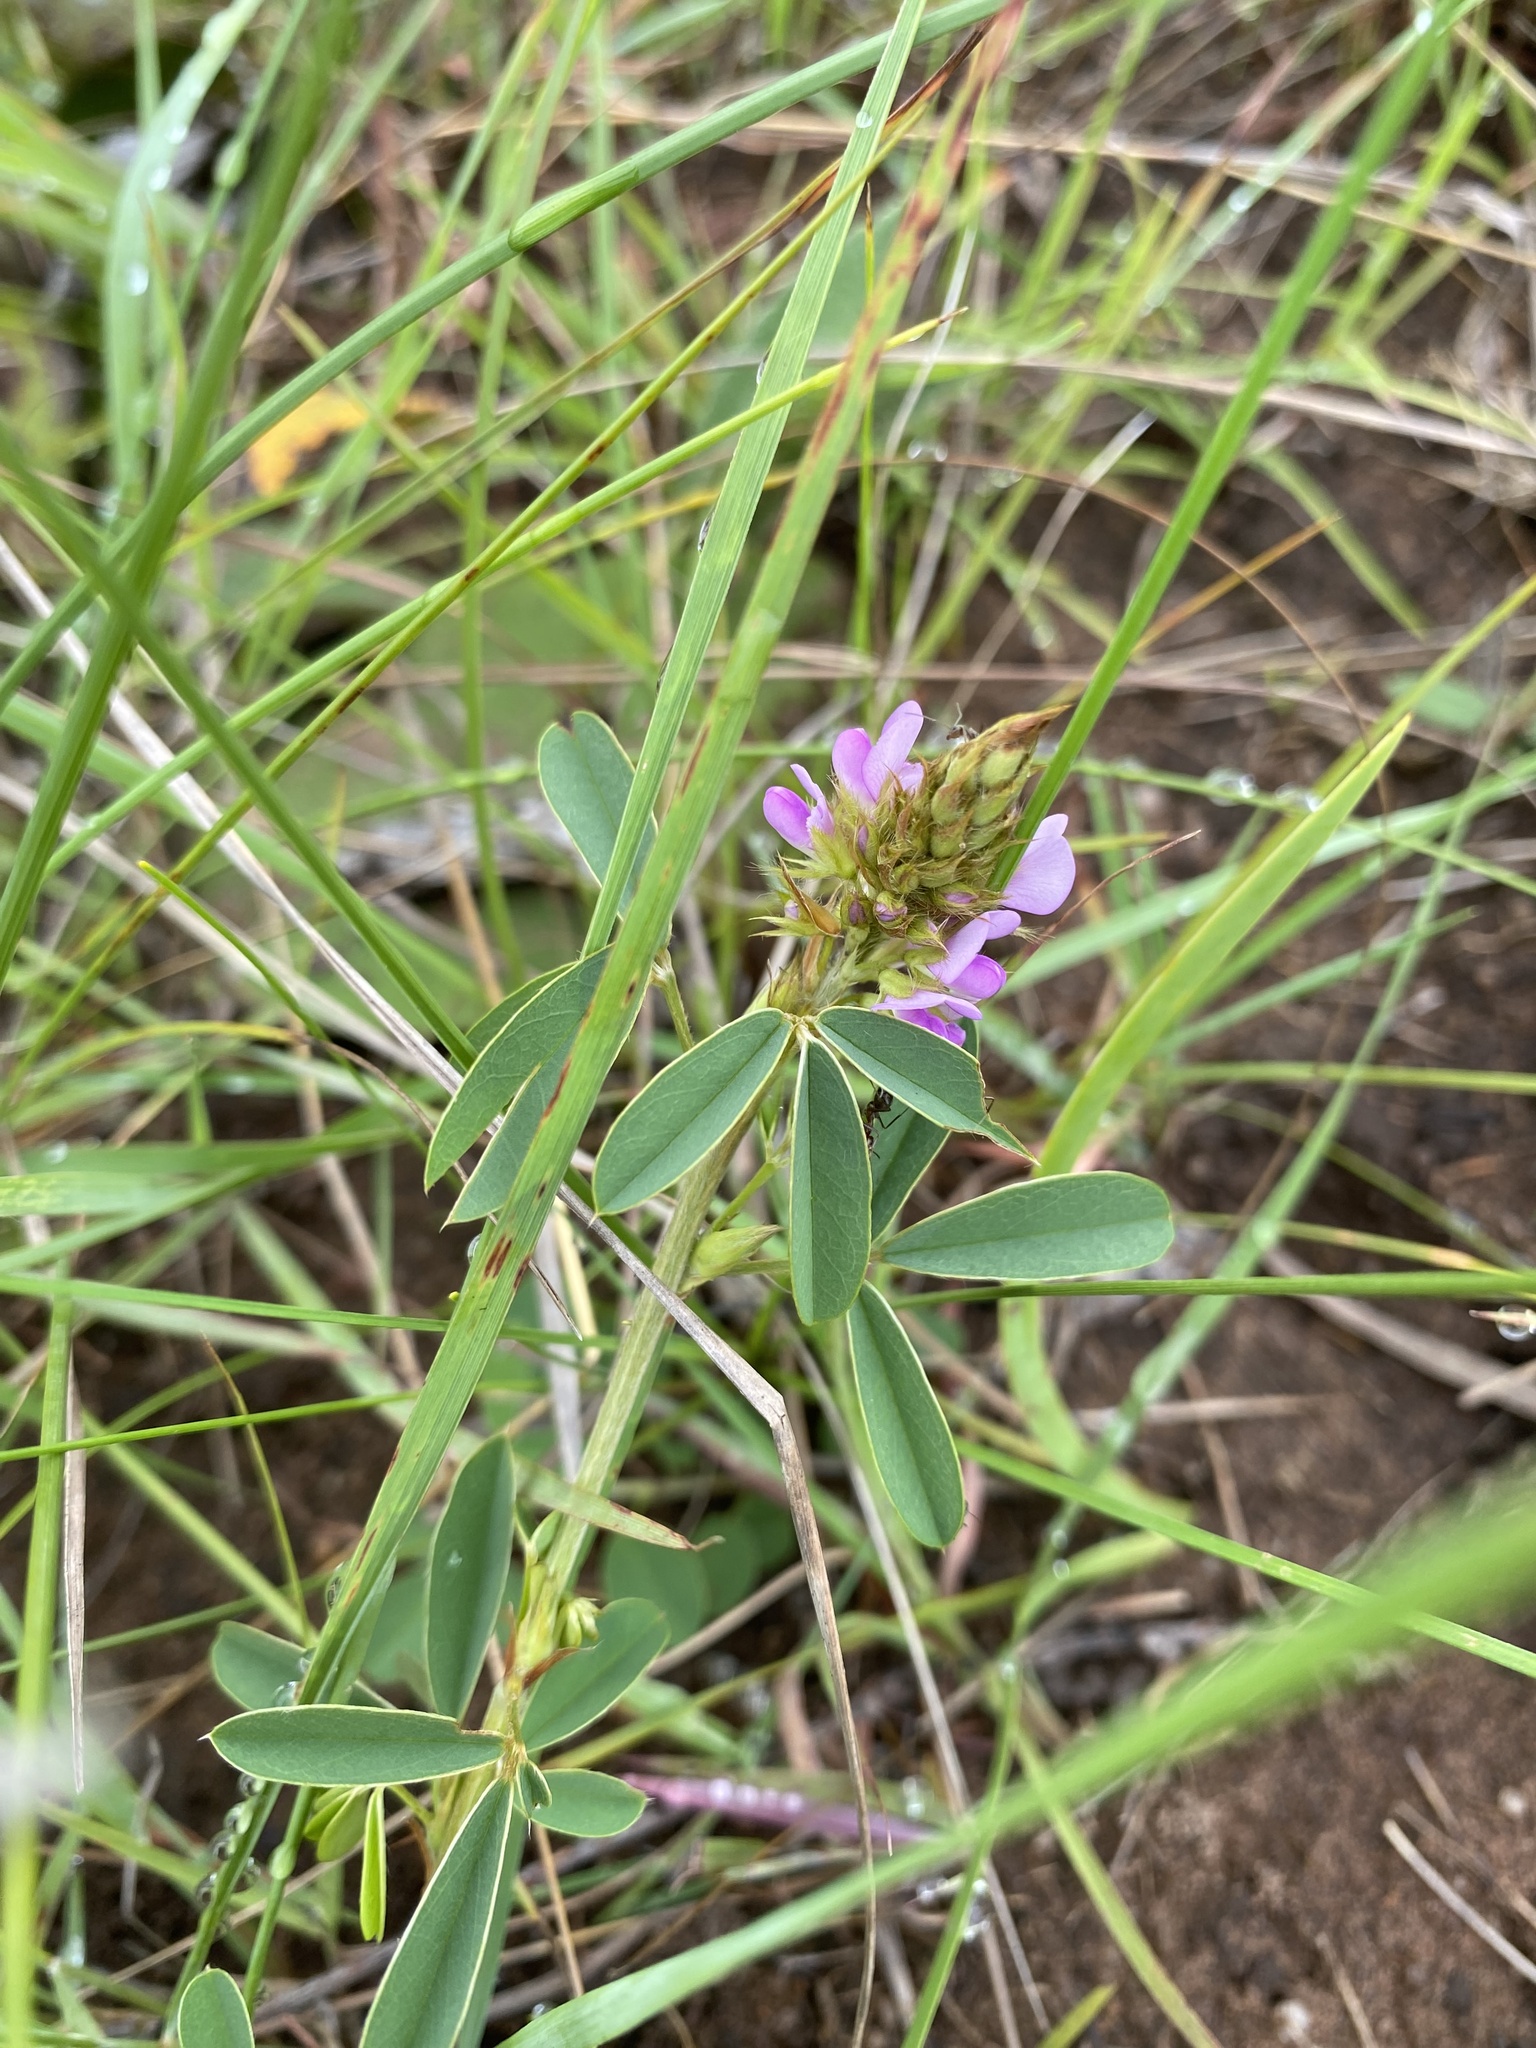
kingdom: Plantae
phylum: Tracheophyta
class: Magnoliopsida
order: Fabales
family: Fabaceae
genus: Grona
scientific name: Grona caffra
